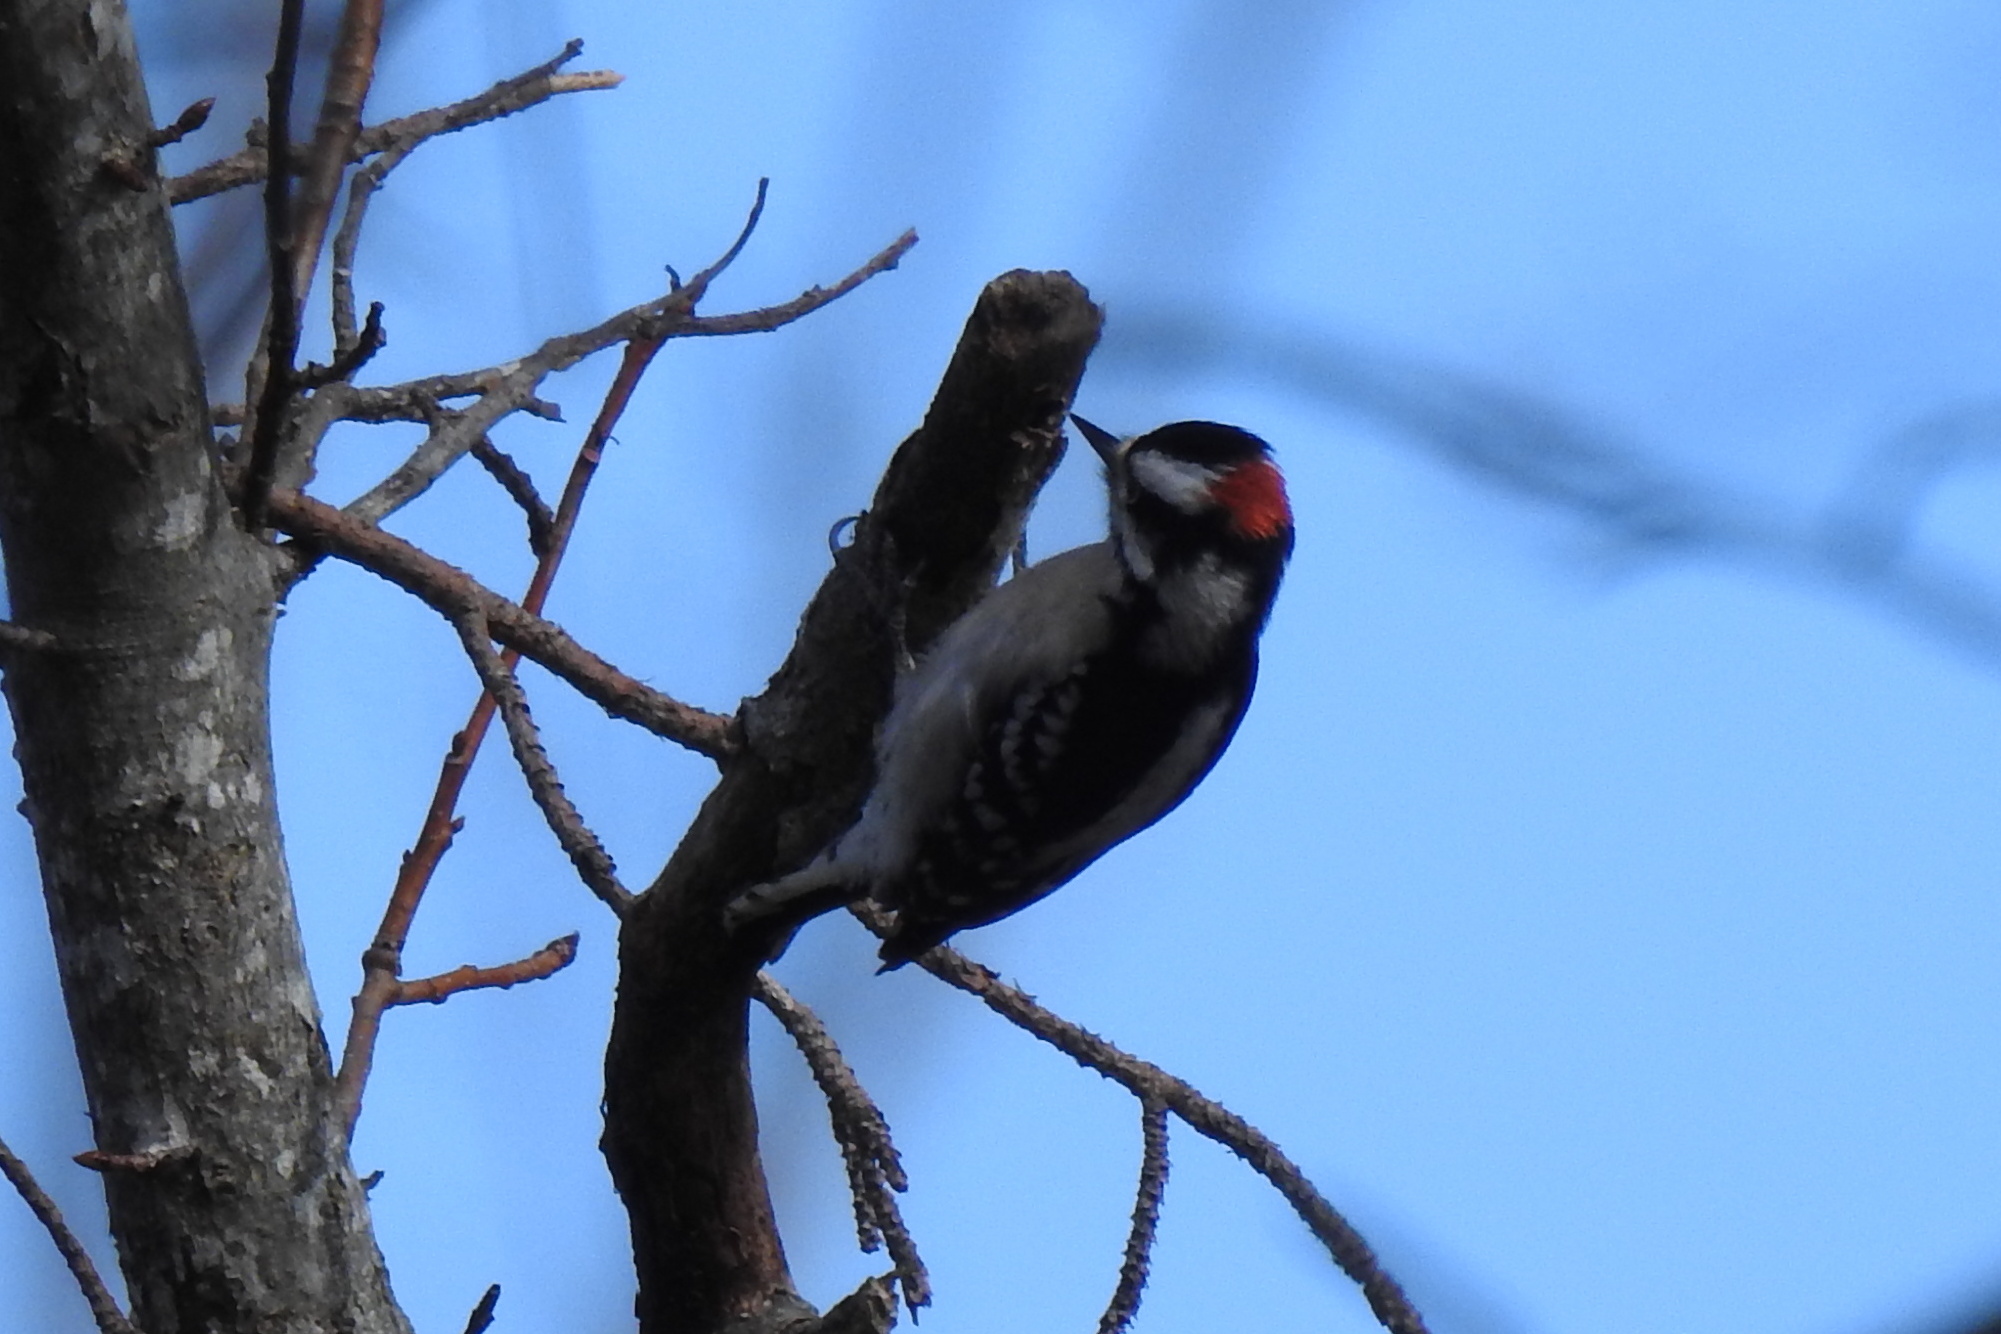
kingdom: Animalia
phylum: Chordata
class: Aves
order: Piciformes
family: Picidae
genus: Dryobates
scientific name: Dryobates pubescens
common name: Downy woodpecker
